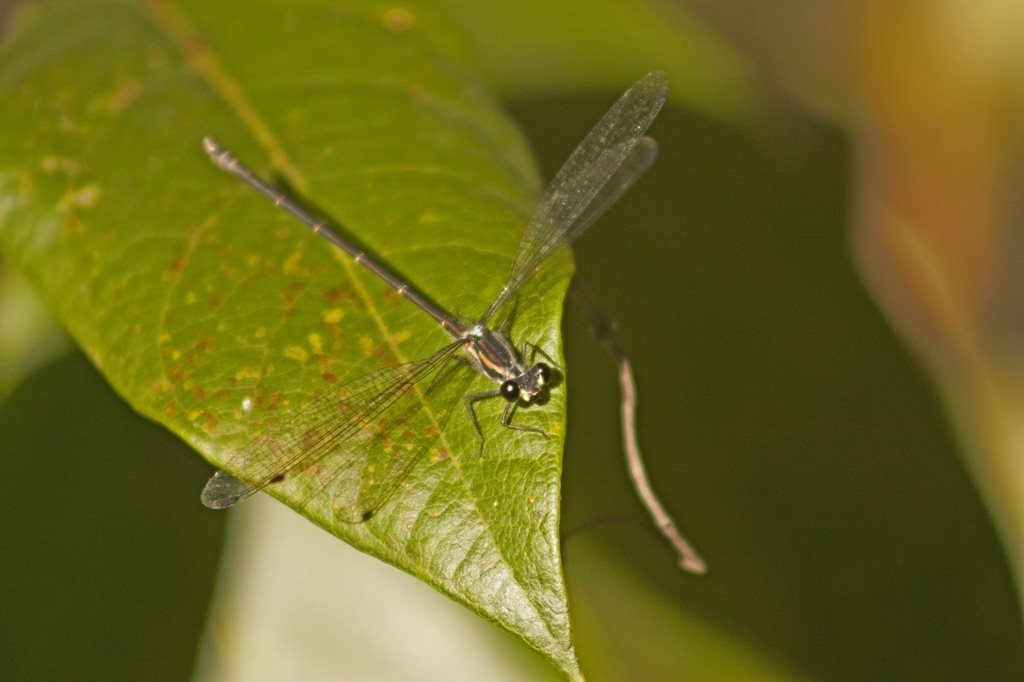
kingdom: Animalia
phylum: Arthropoda
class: Insecta
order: Odonata
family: Argiolestidae
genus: Austroargiolestes
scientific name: Austroargiolestes icteromelas
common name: Common flatwing
